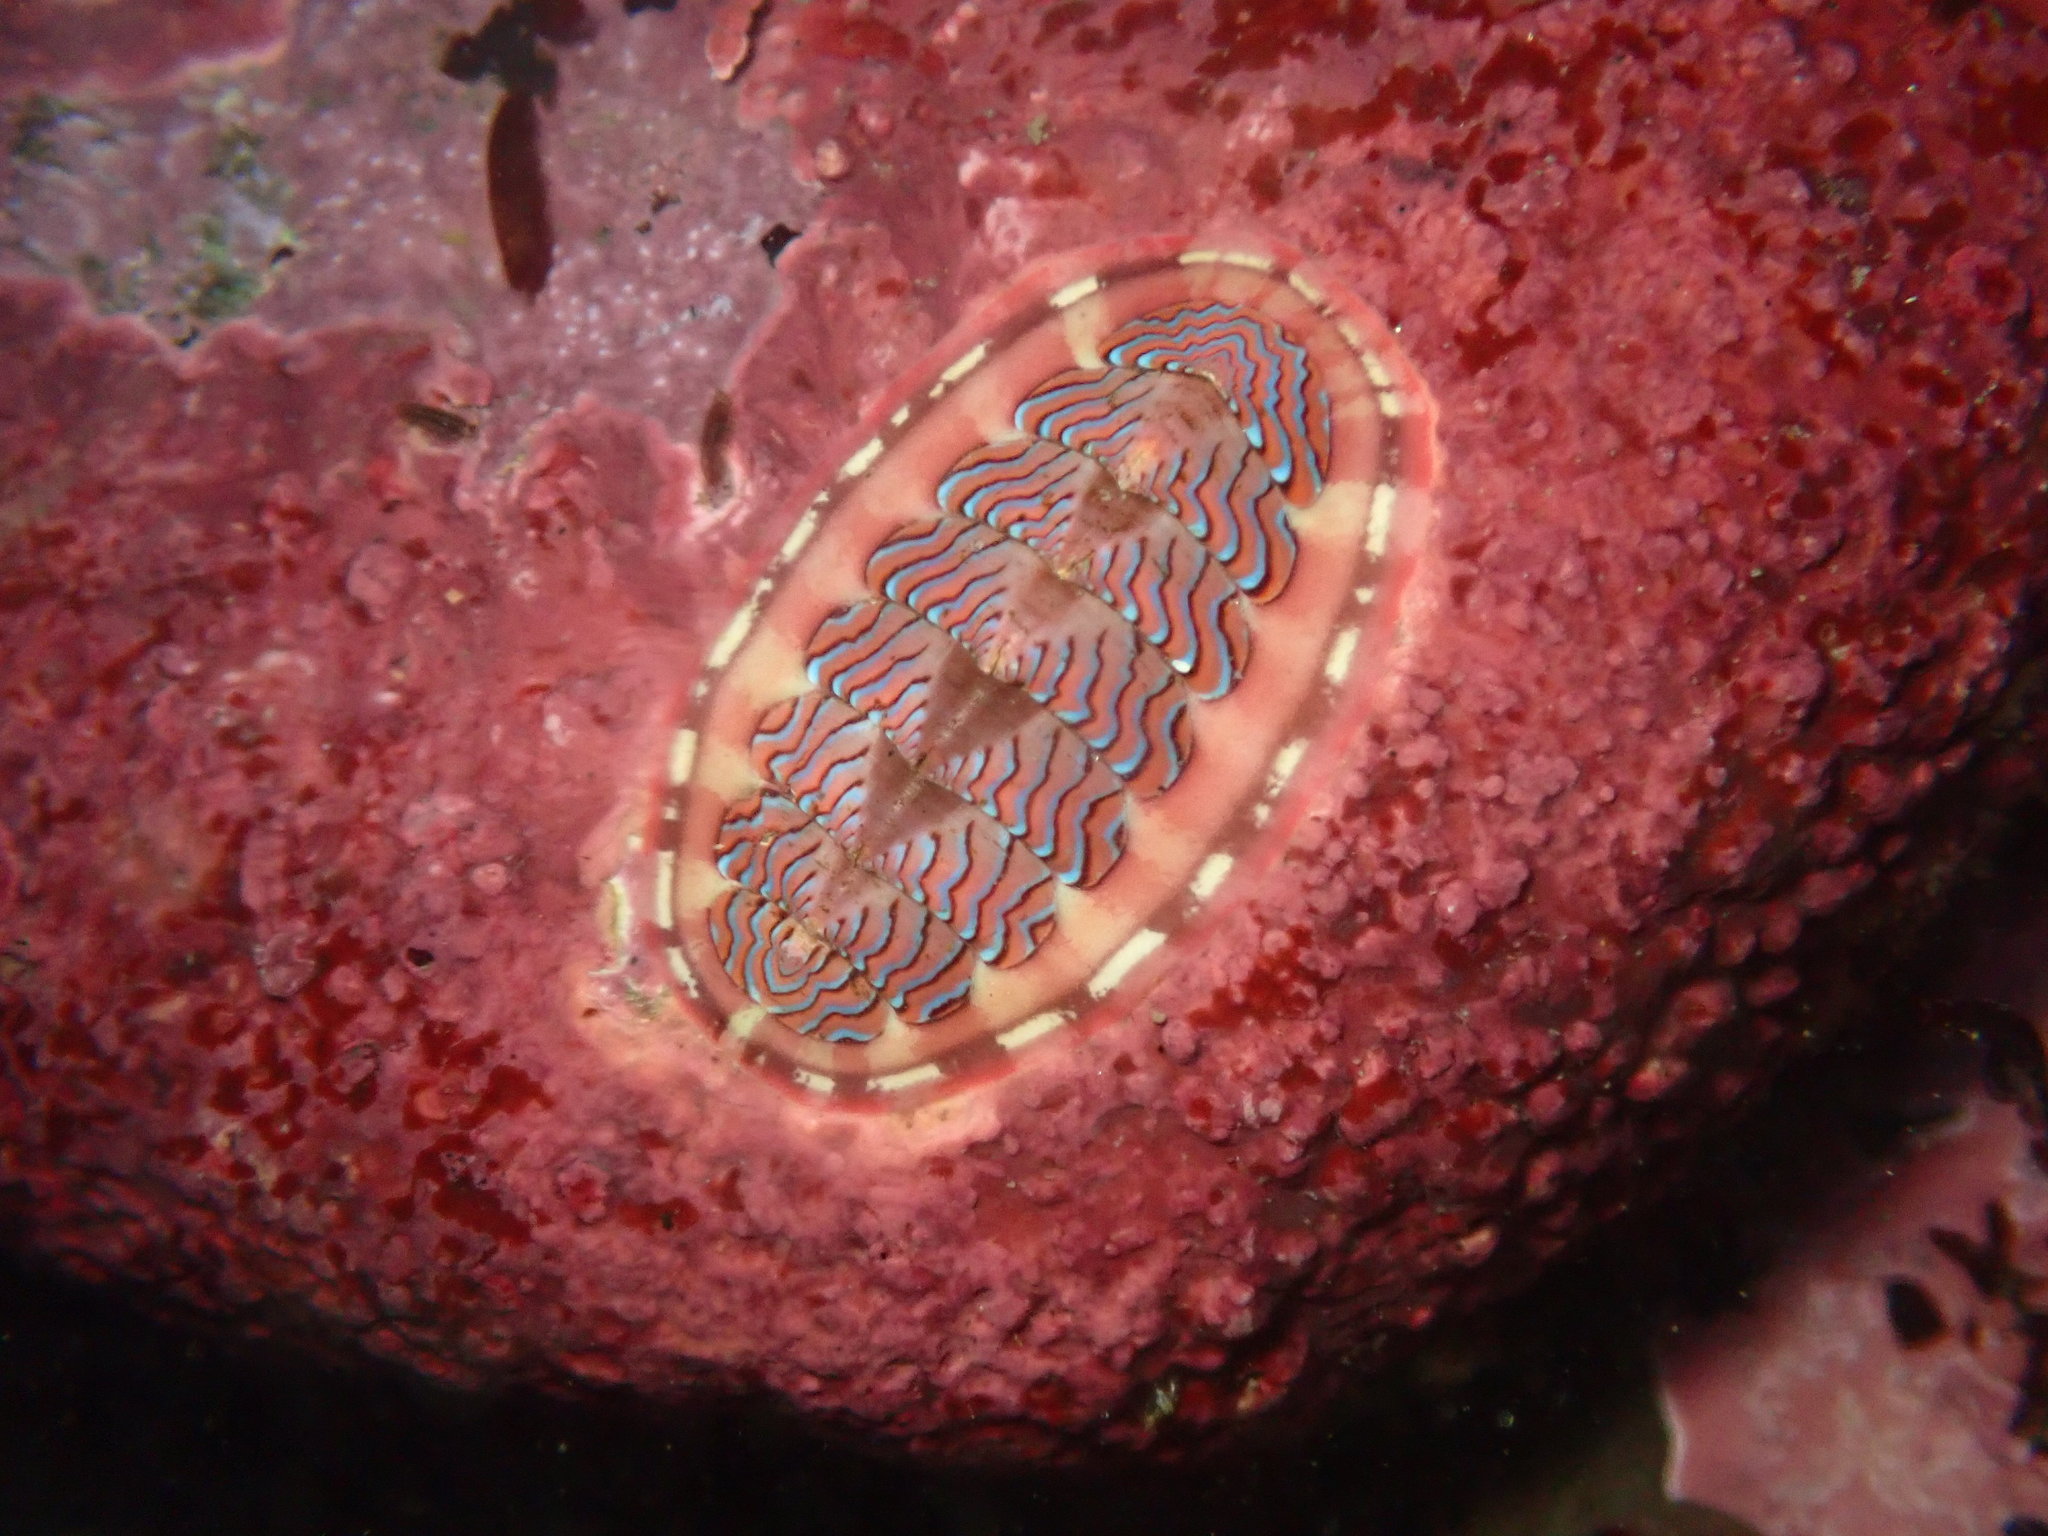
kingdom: Animalia
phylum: Mollusca
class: Polyplacophora
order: Chitonida
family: Tonicellidae
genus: Tonicella
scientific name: Tonicella lokii
